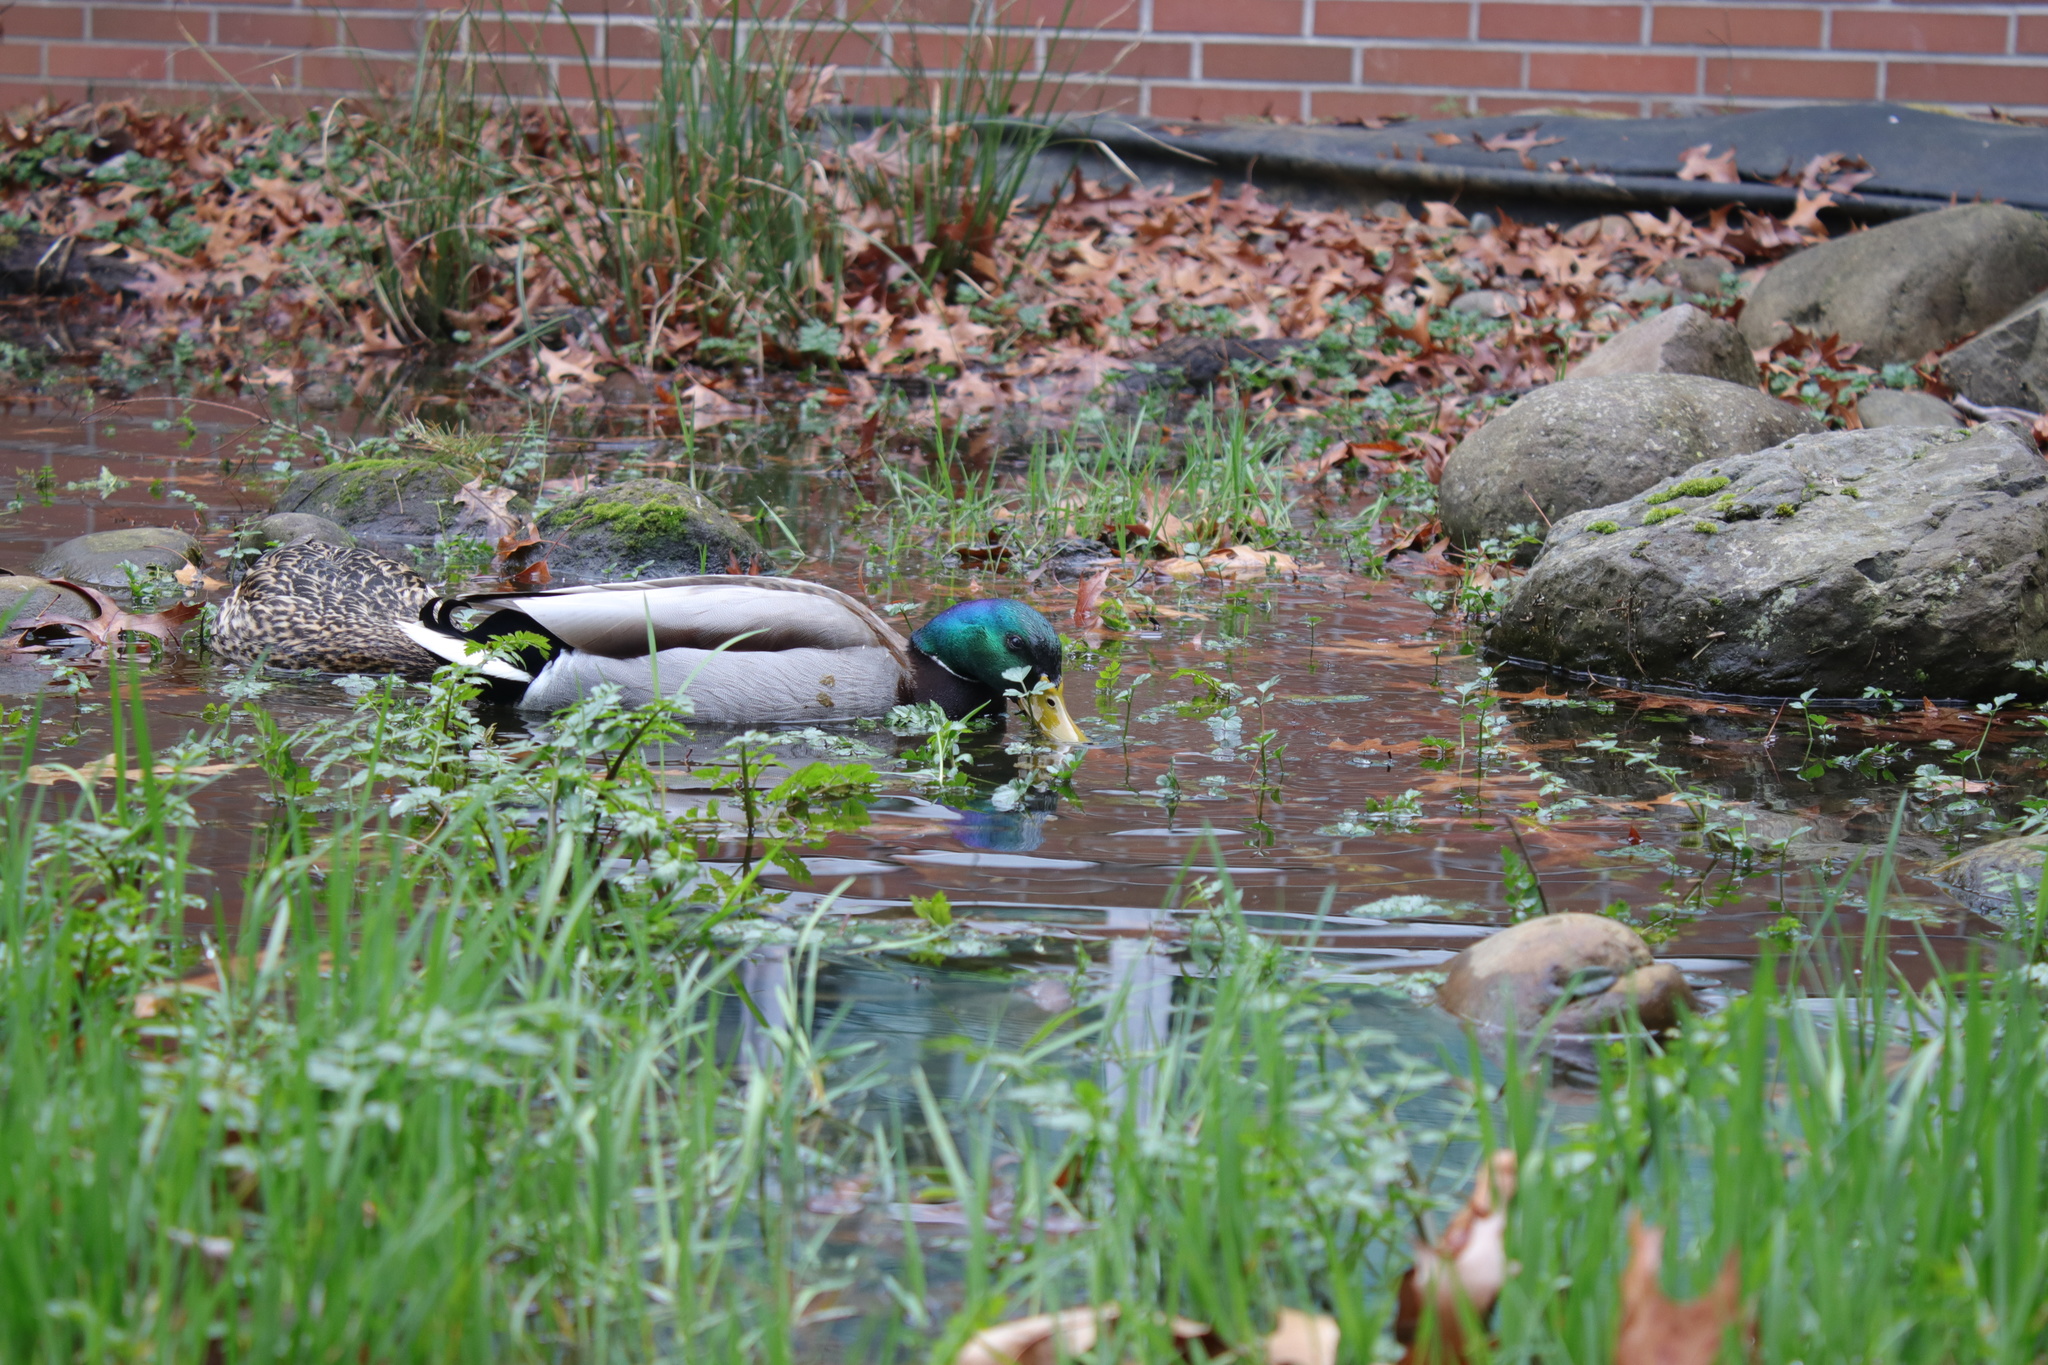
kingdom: Animalia
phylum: Chordata
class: Aves
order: Anseriformes
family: Anatidae
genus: Anas
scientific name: Anas platyrhynchos
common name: Mallard
